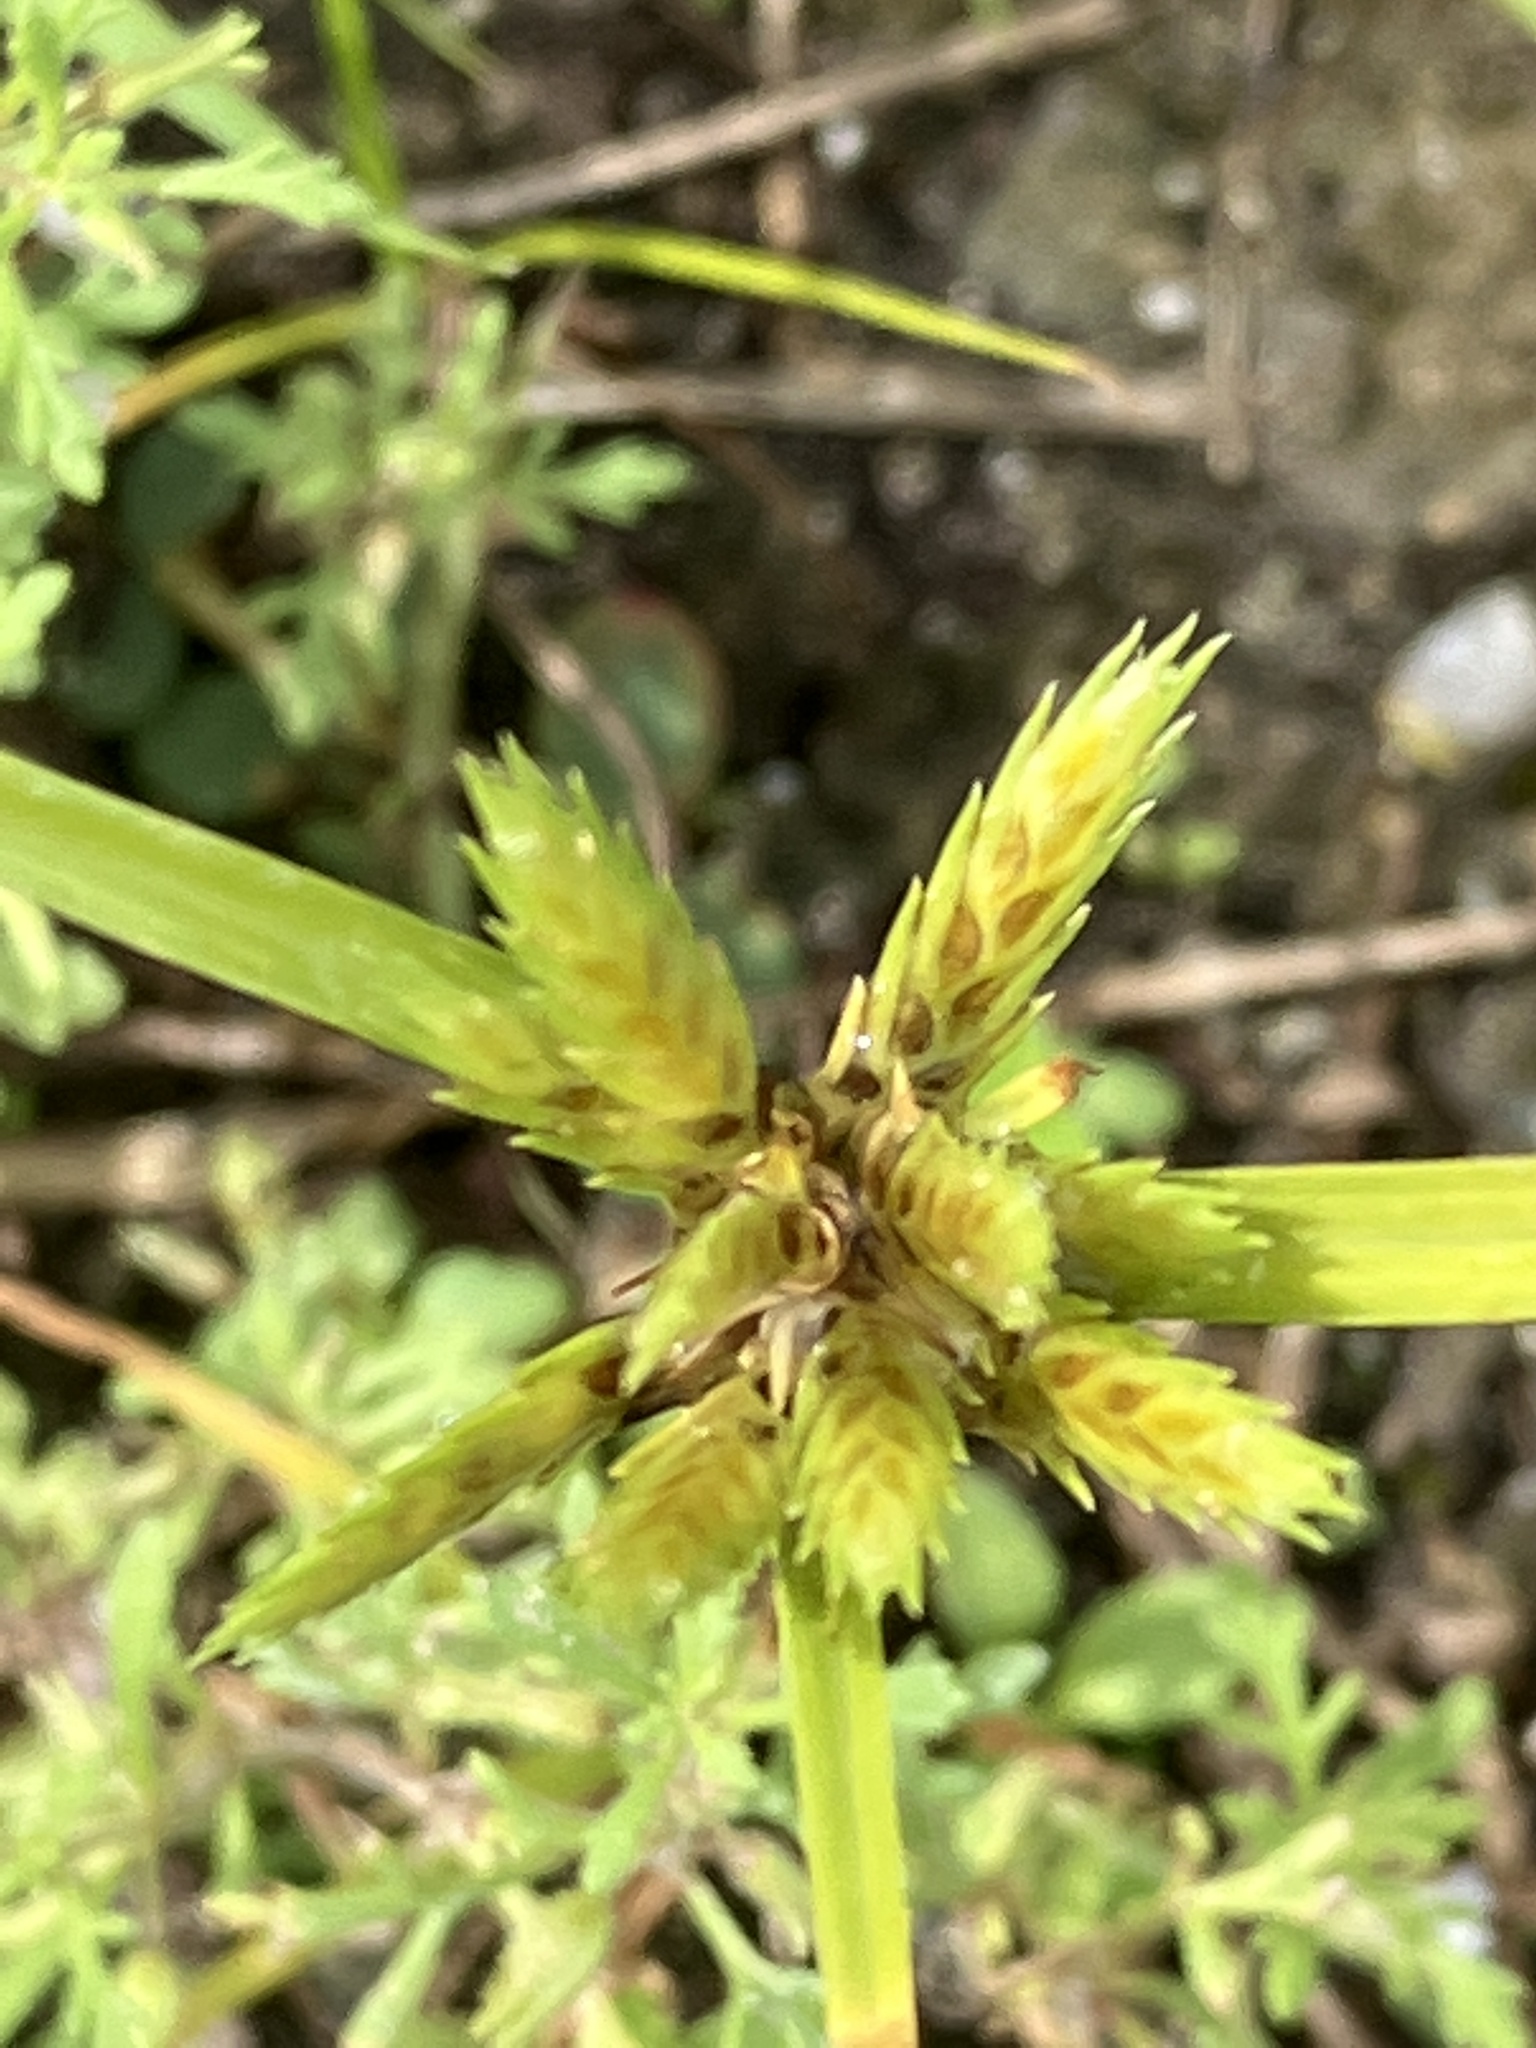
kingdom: Plantae
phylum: Tracheophyta
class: Liliopsida
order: Poales
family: Cyperaceae
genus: Cyperus
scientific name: Cyperus compressus
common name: Poorland flatsedge
